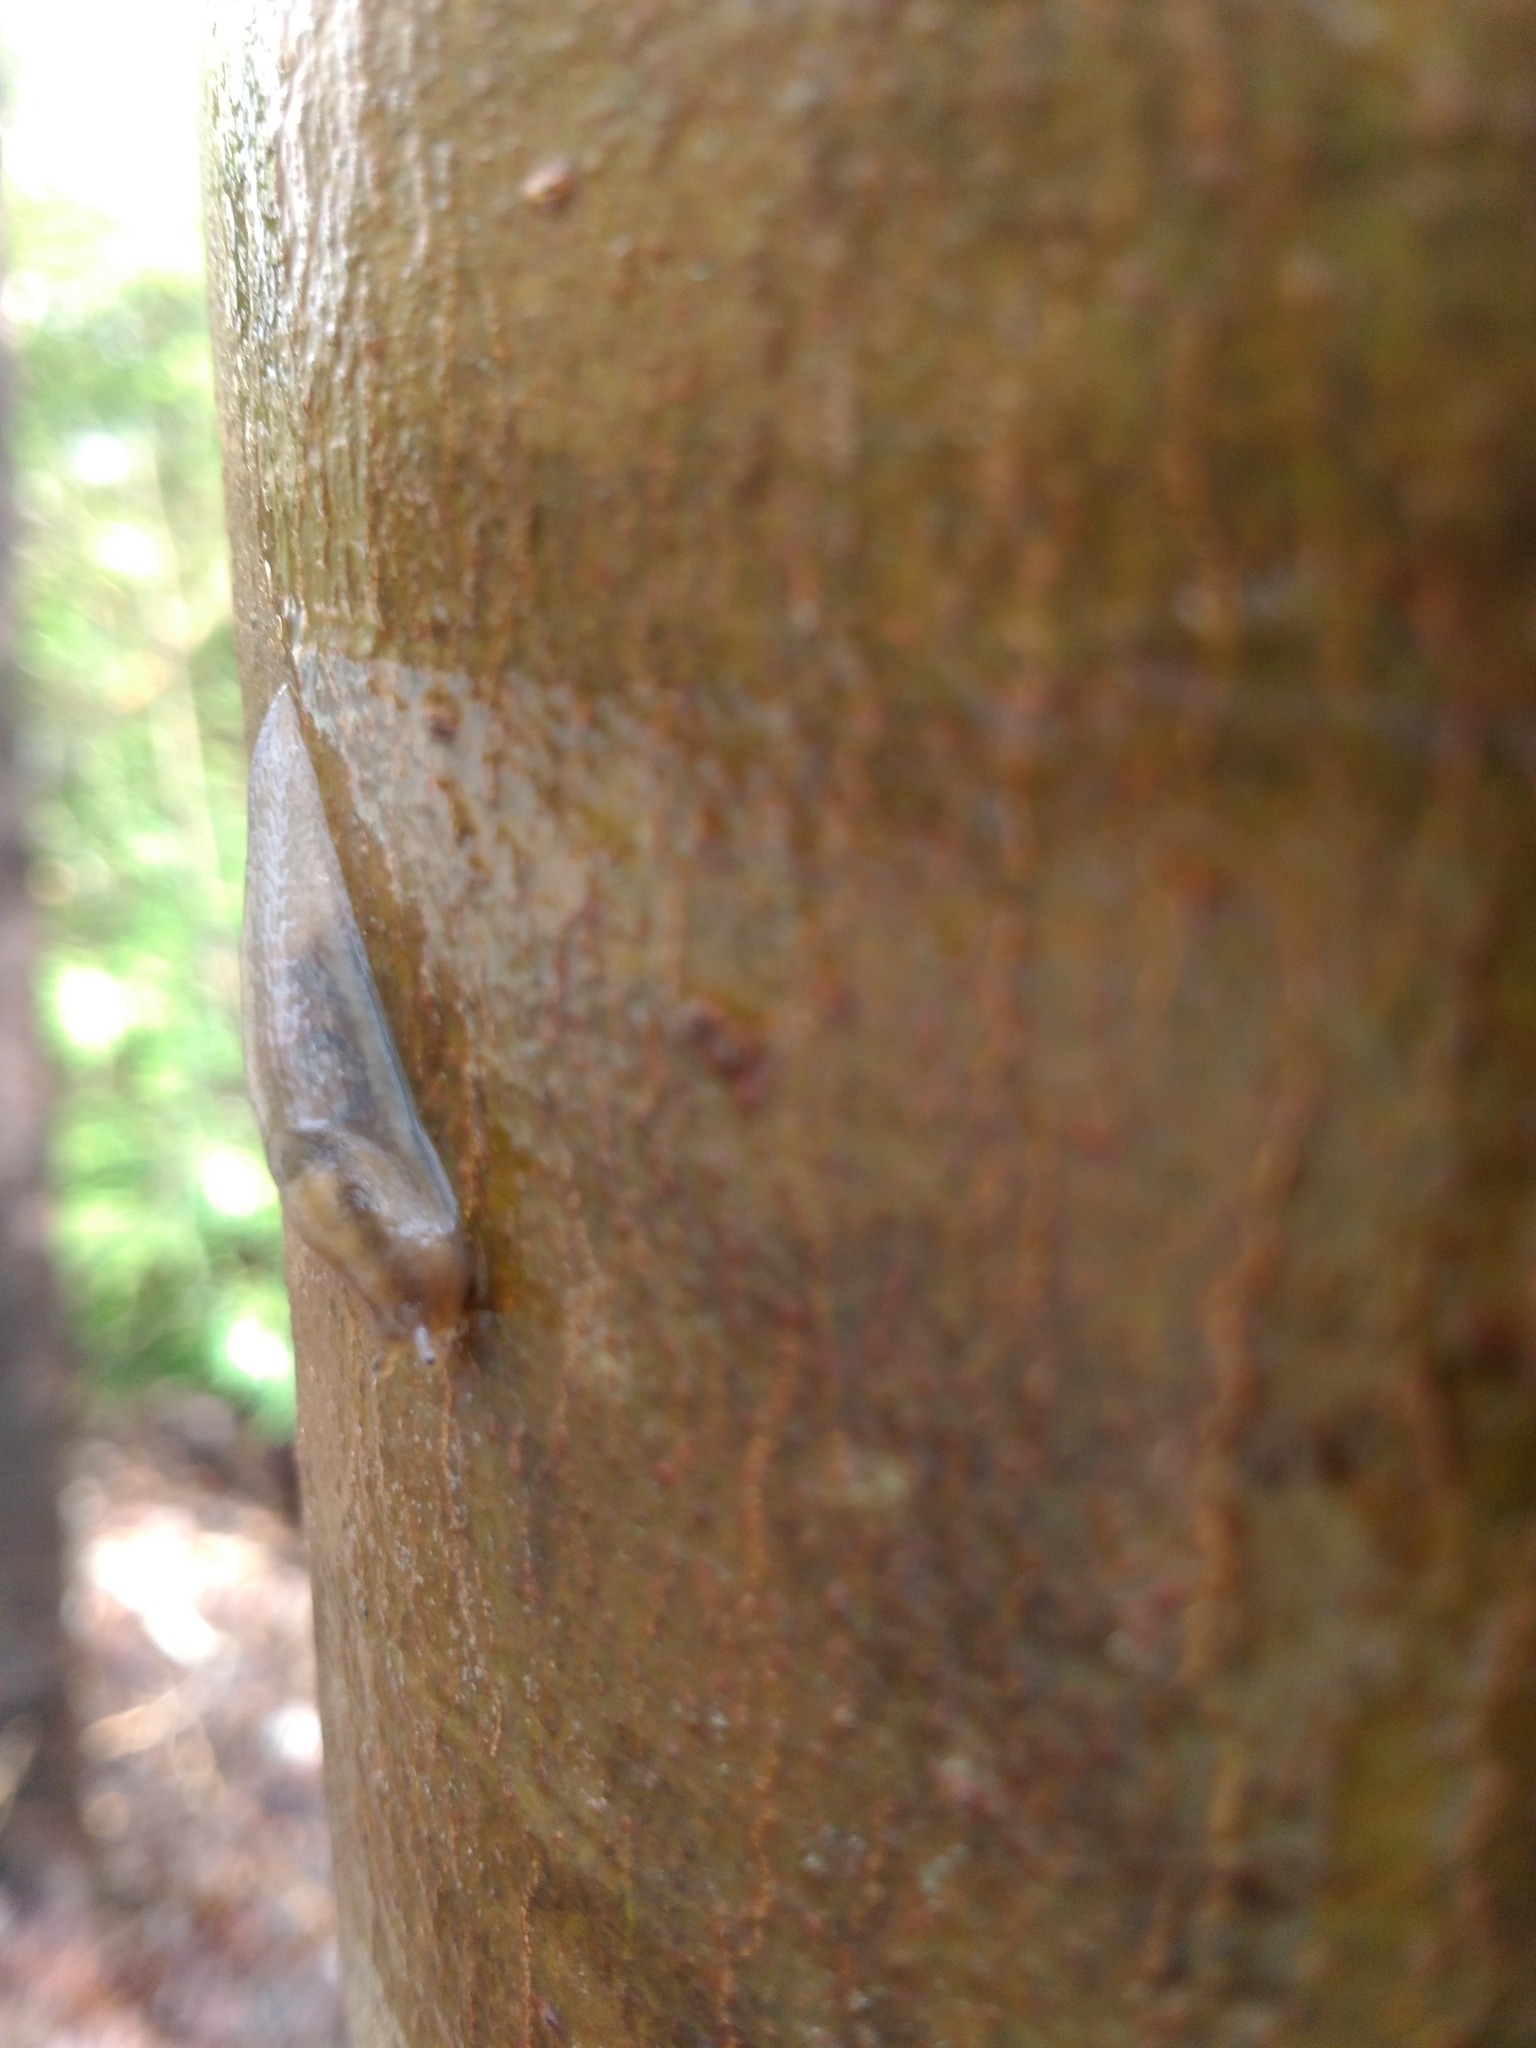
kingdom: Animalia
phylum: Mollusca
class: Gastropoda
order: Stylommatophora
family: Limacidae
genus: Lehmannia
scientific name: Lehmannia marginata
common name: Tree slug
